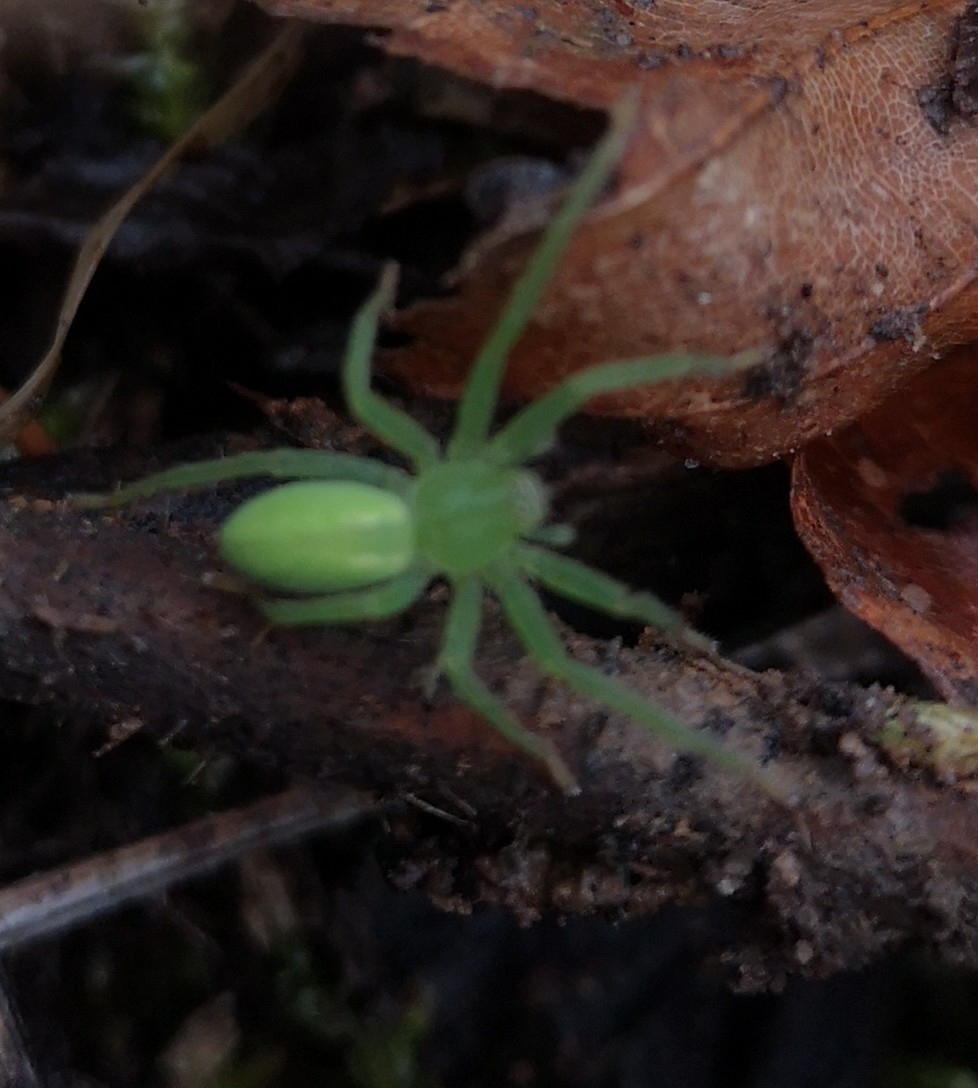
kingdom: Animalia
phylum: Arthropoda
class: Arachnida
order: Araneae
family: Sparassidae
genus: Micrommata
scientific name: Micrommata virescens
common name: Green spider
